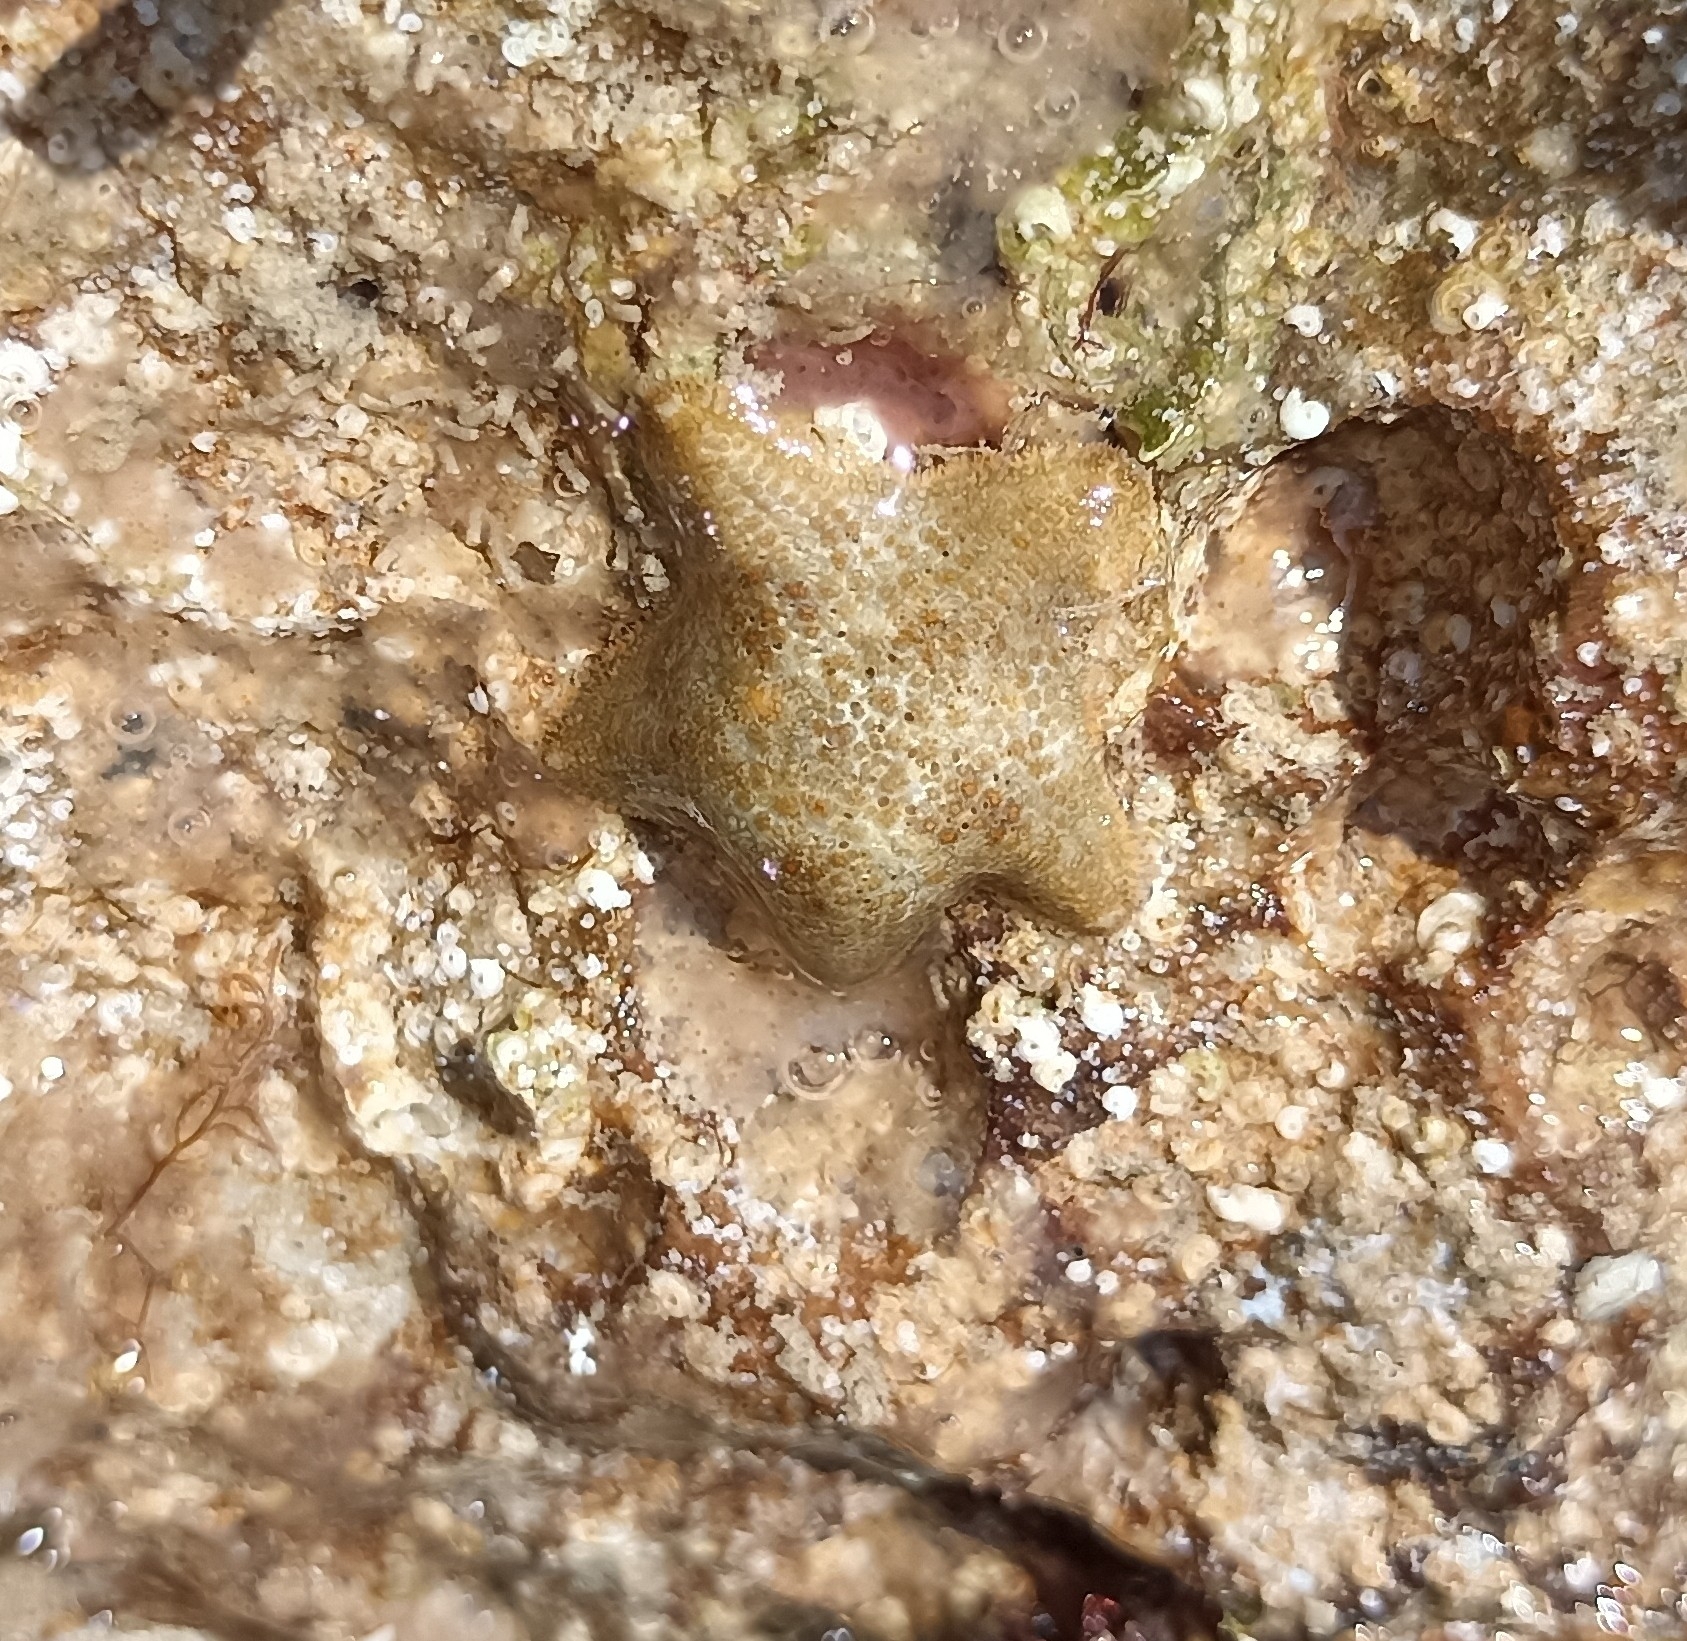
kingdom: Animalia
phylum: Echinodermata
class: Asteroidea
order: Valvatida
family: Asterinidae
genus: Asterina
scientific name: Asterina gibbosa
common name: Cushion star
